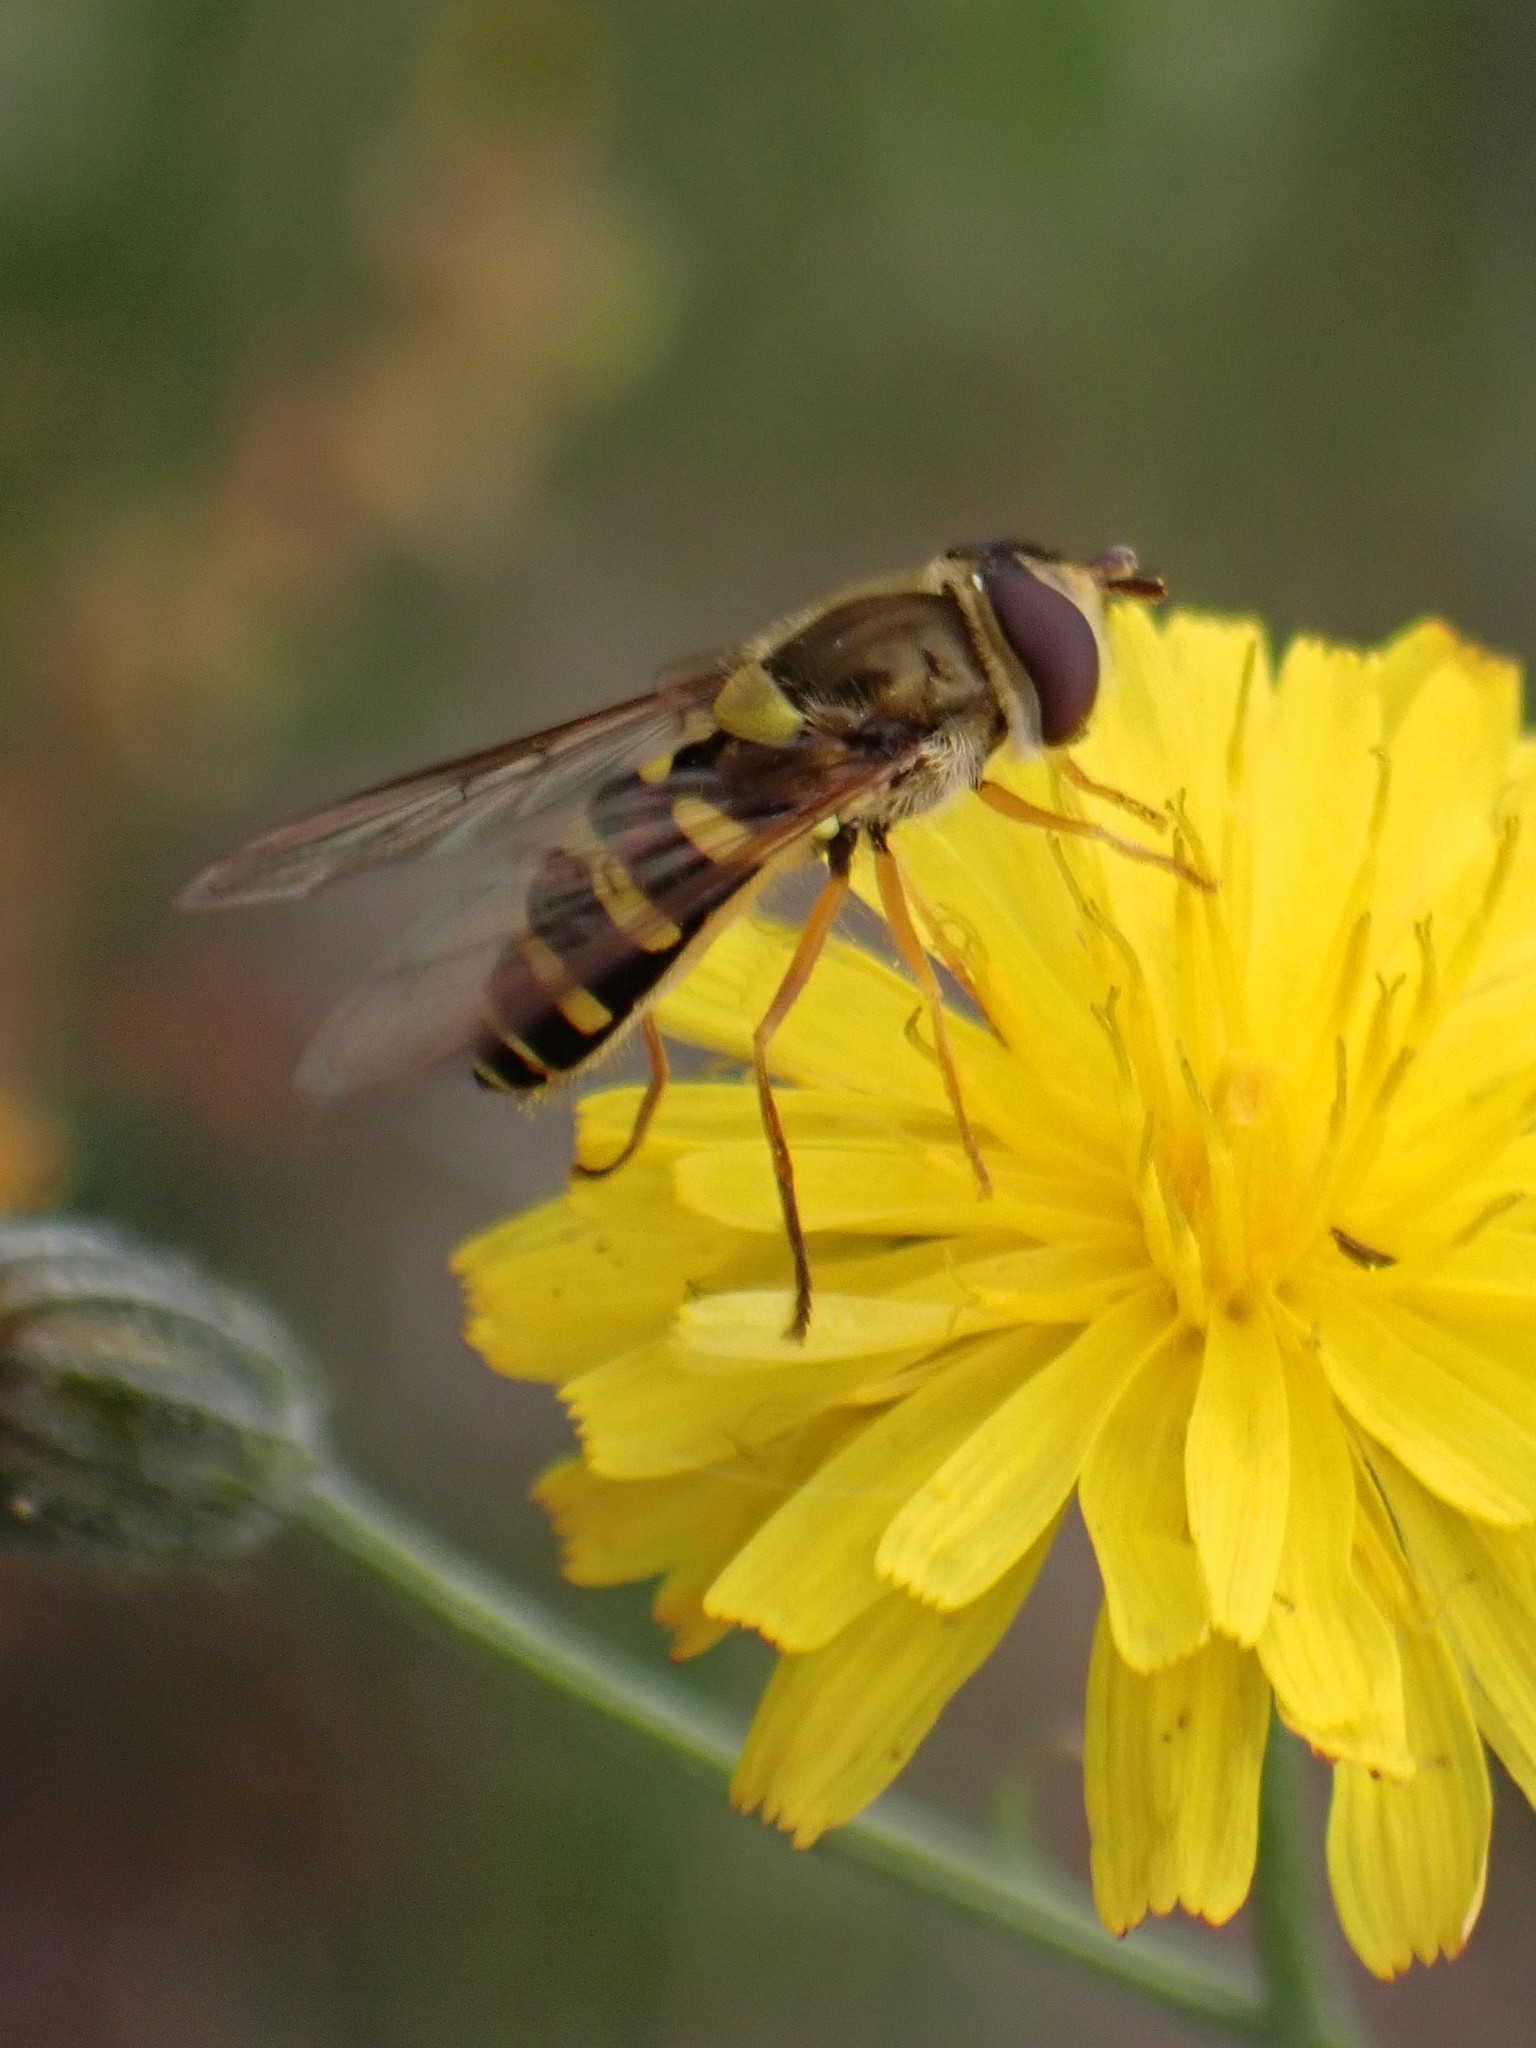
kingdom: Animalia
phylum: Arthropoda
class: Insecta
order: Diptera
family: Syrphidae
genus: Syrphus
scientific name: Syrphus opinator
